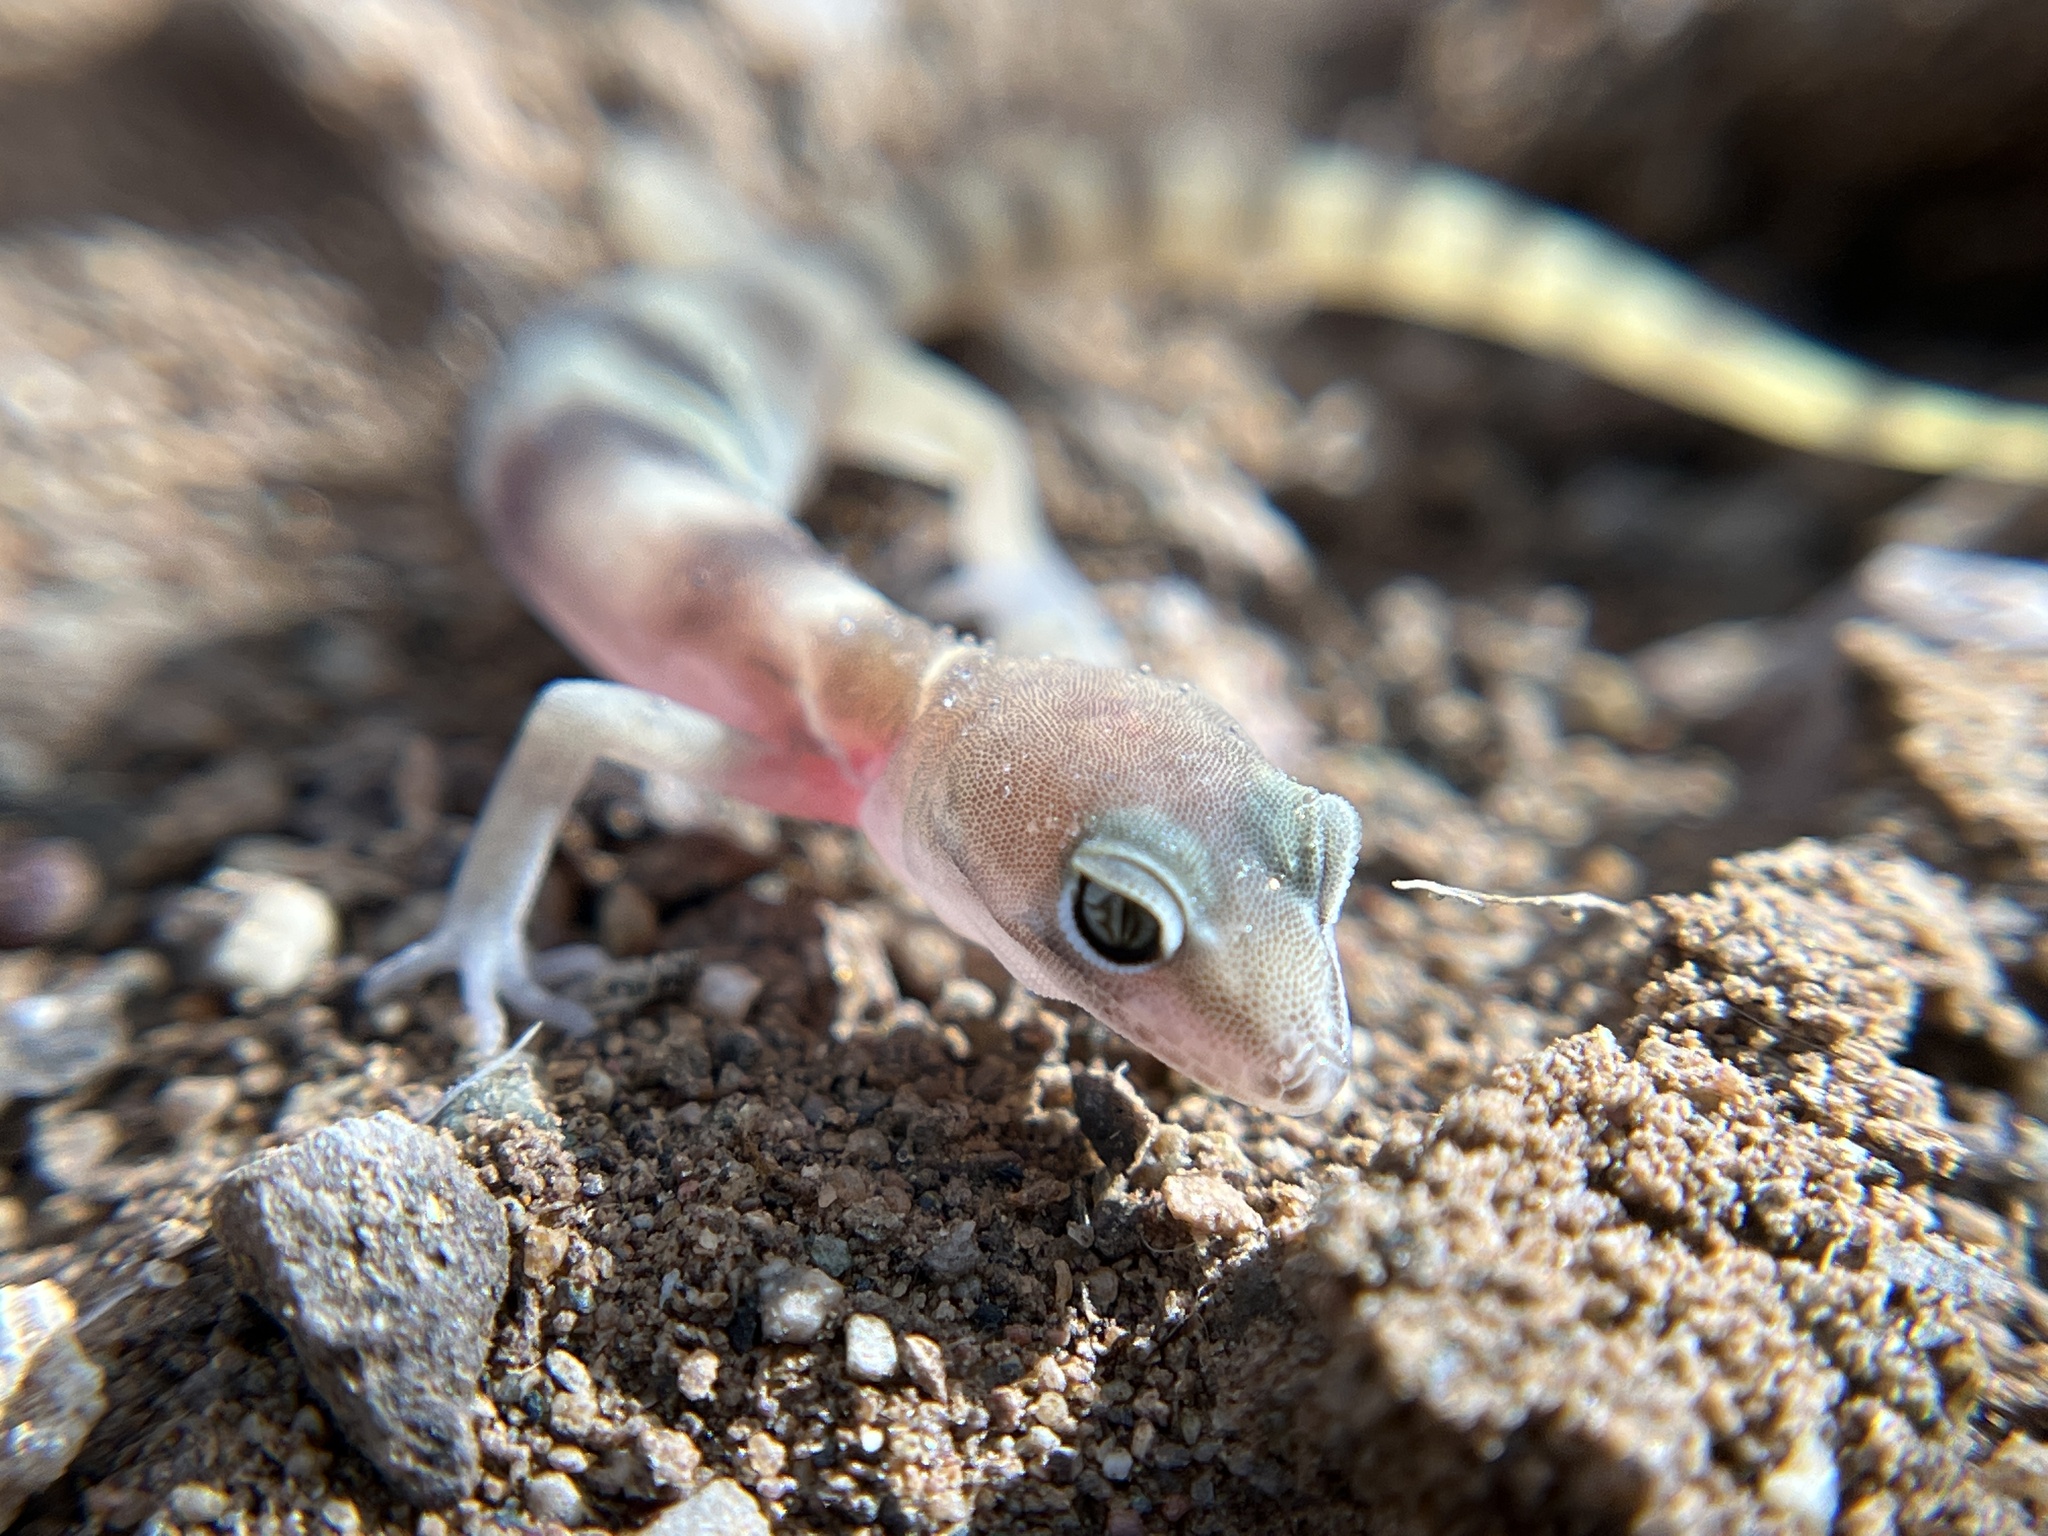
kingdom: Animalia
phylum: Chordata
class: Squamata
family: Eublepharidae
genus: Coleonyx
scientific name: Coleonyx variegatus
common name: Western banded gecko
